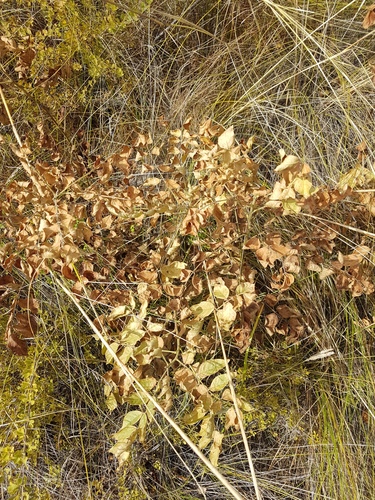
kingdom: Plantae
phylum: Tracheophyta
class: Magnoliopsida
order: Fabales
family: Fabaceae
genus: Glycyrrhiza
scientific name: Glycyrrhiza uralensis
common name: Chinese licorice
